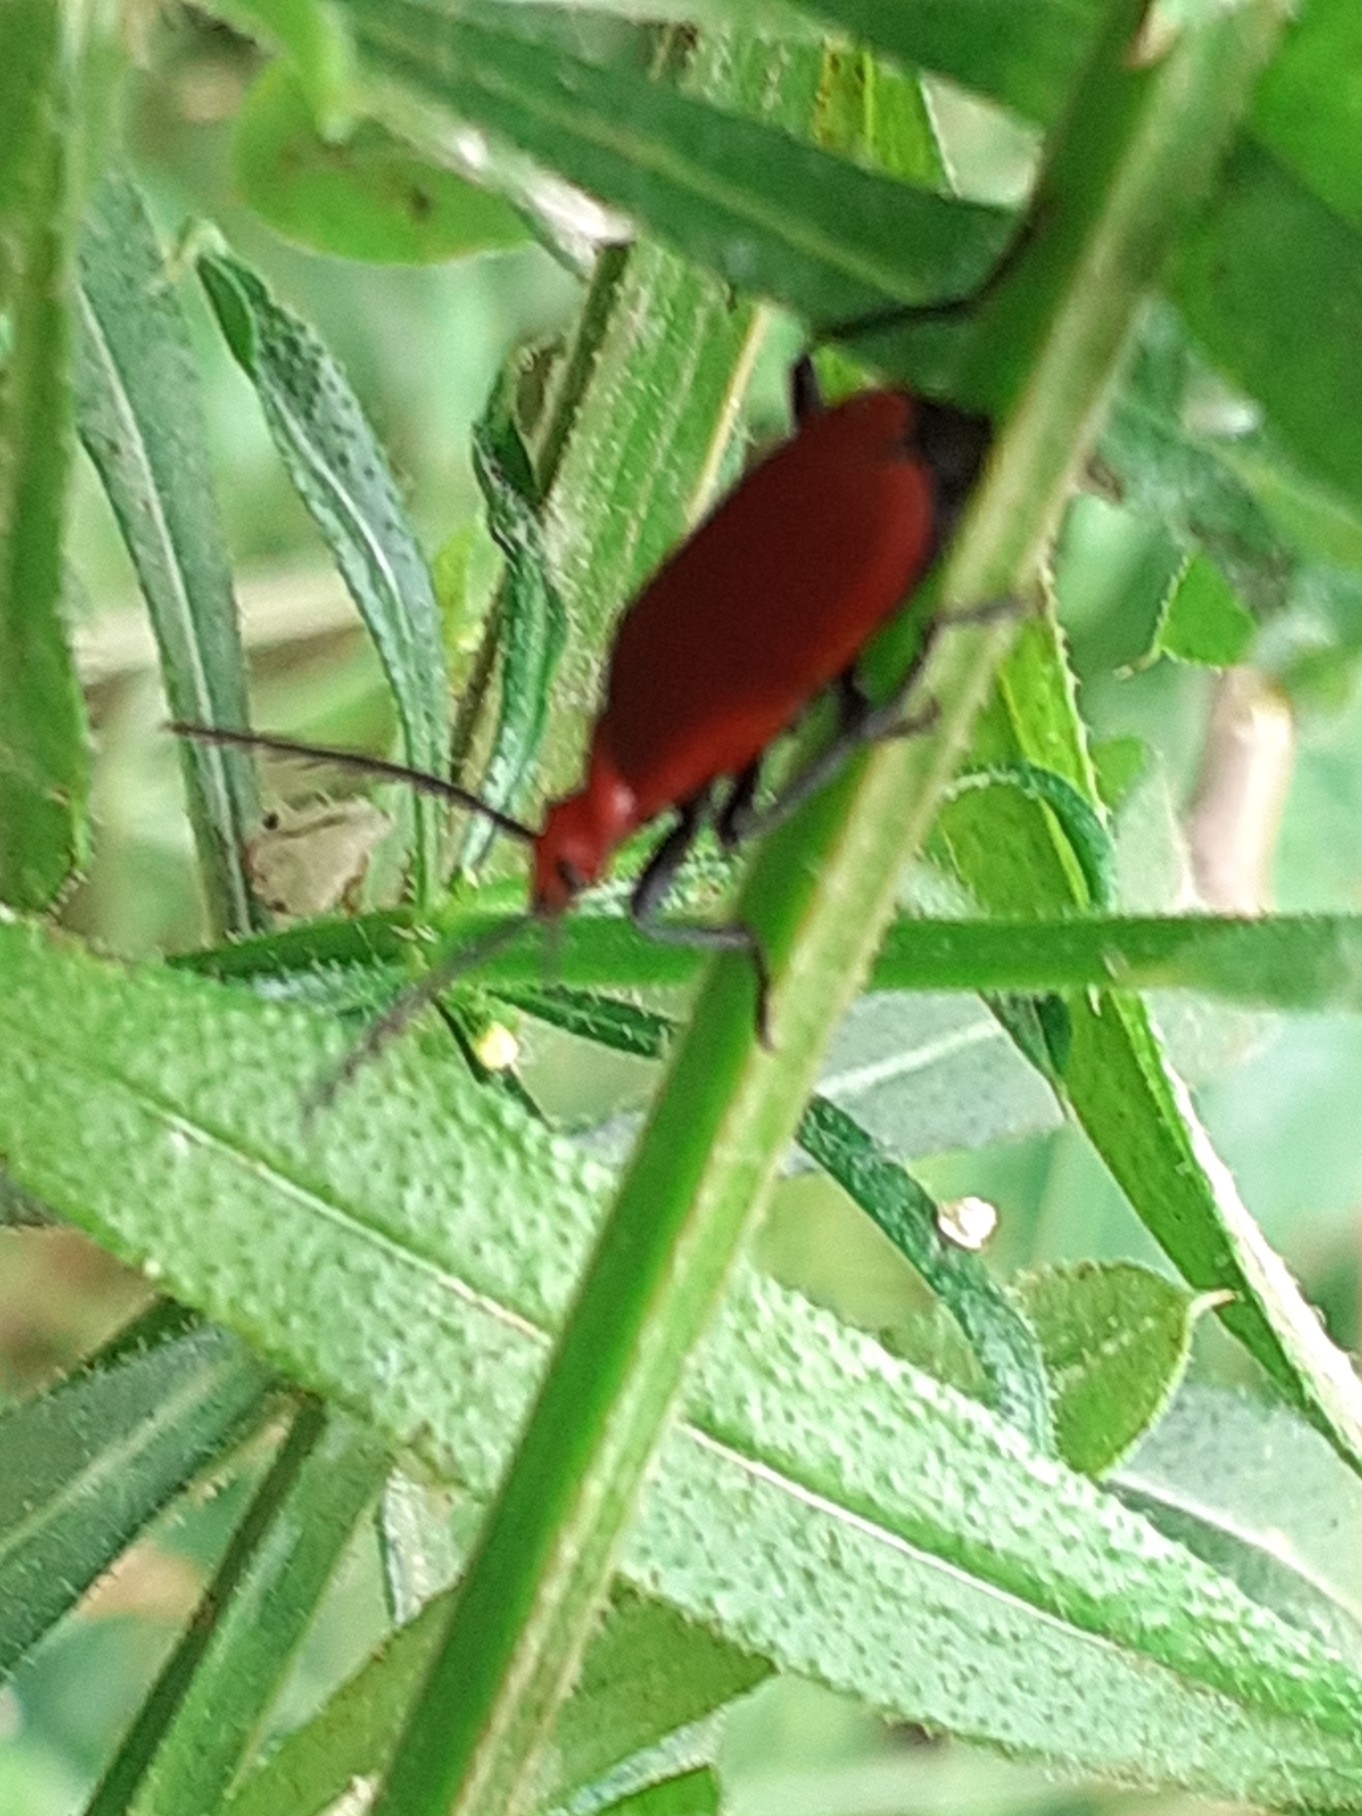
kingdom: Animalia
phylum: Arthropoda
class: Insecta
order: Coleoptera
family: Pyrochroidae
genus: Pyrochroa
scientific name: Pyrochroa serraticornis
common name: Red-headed cardinal beetle
